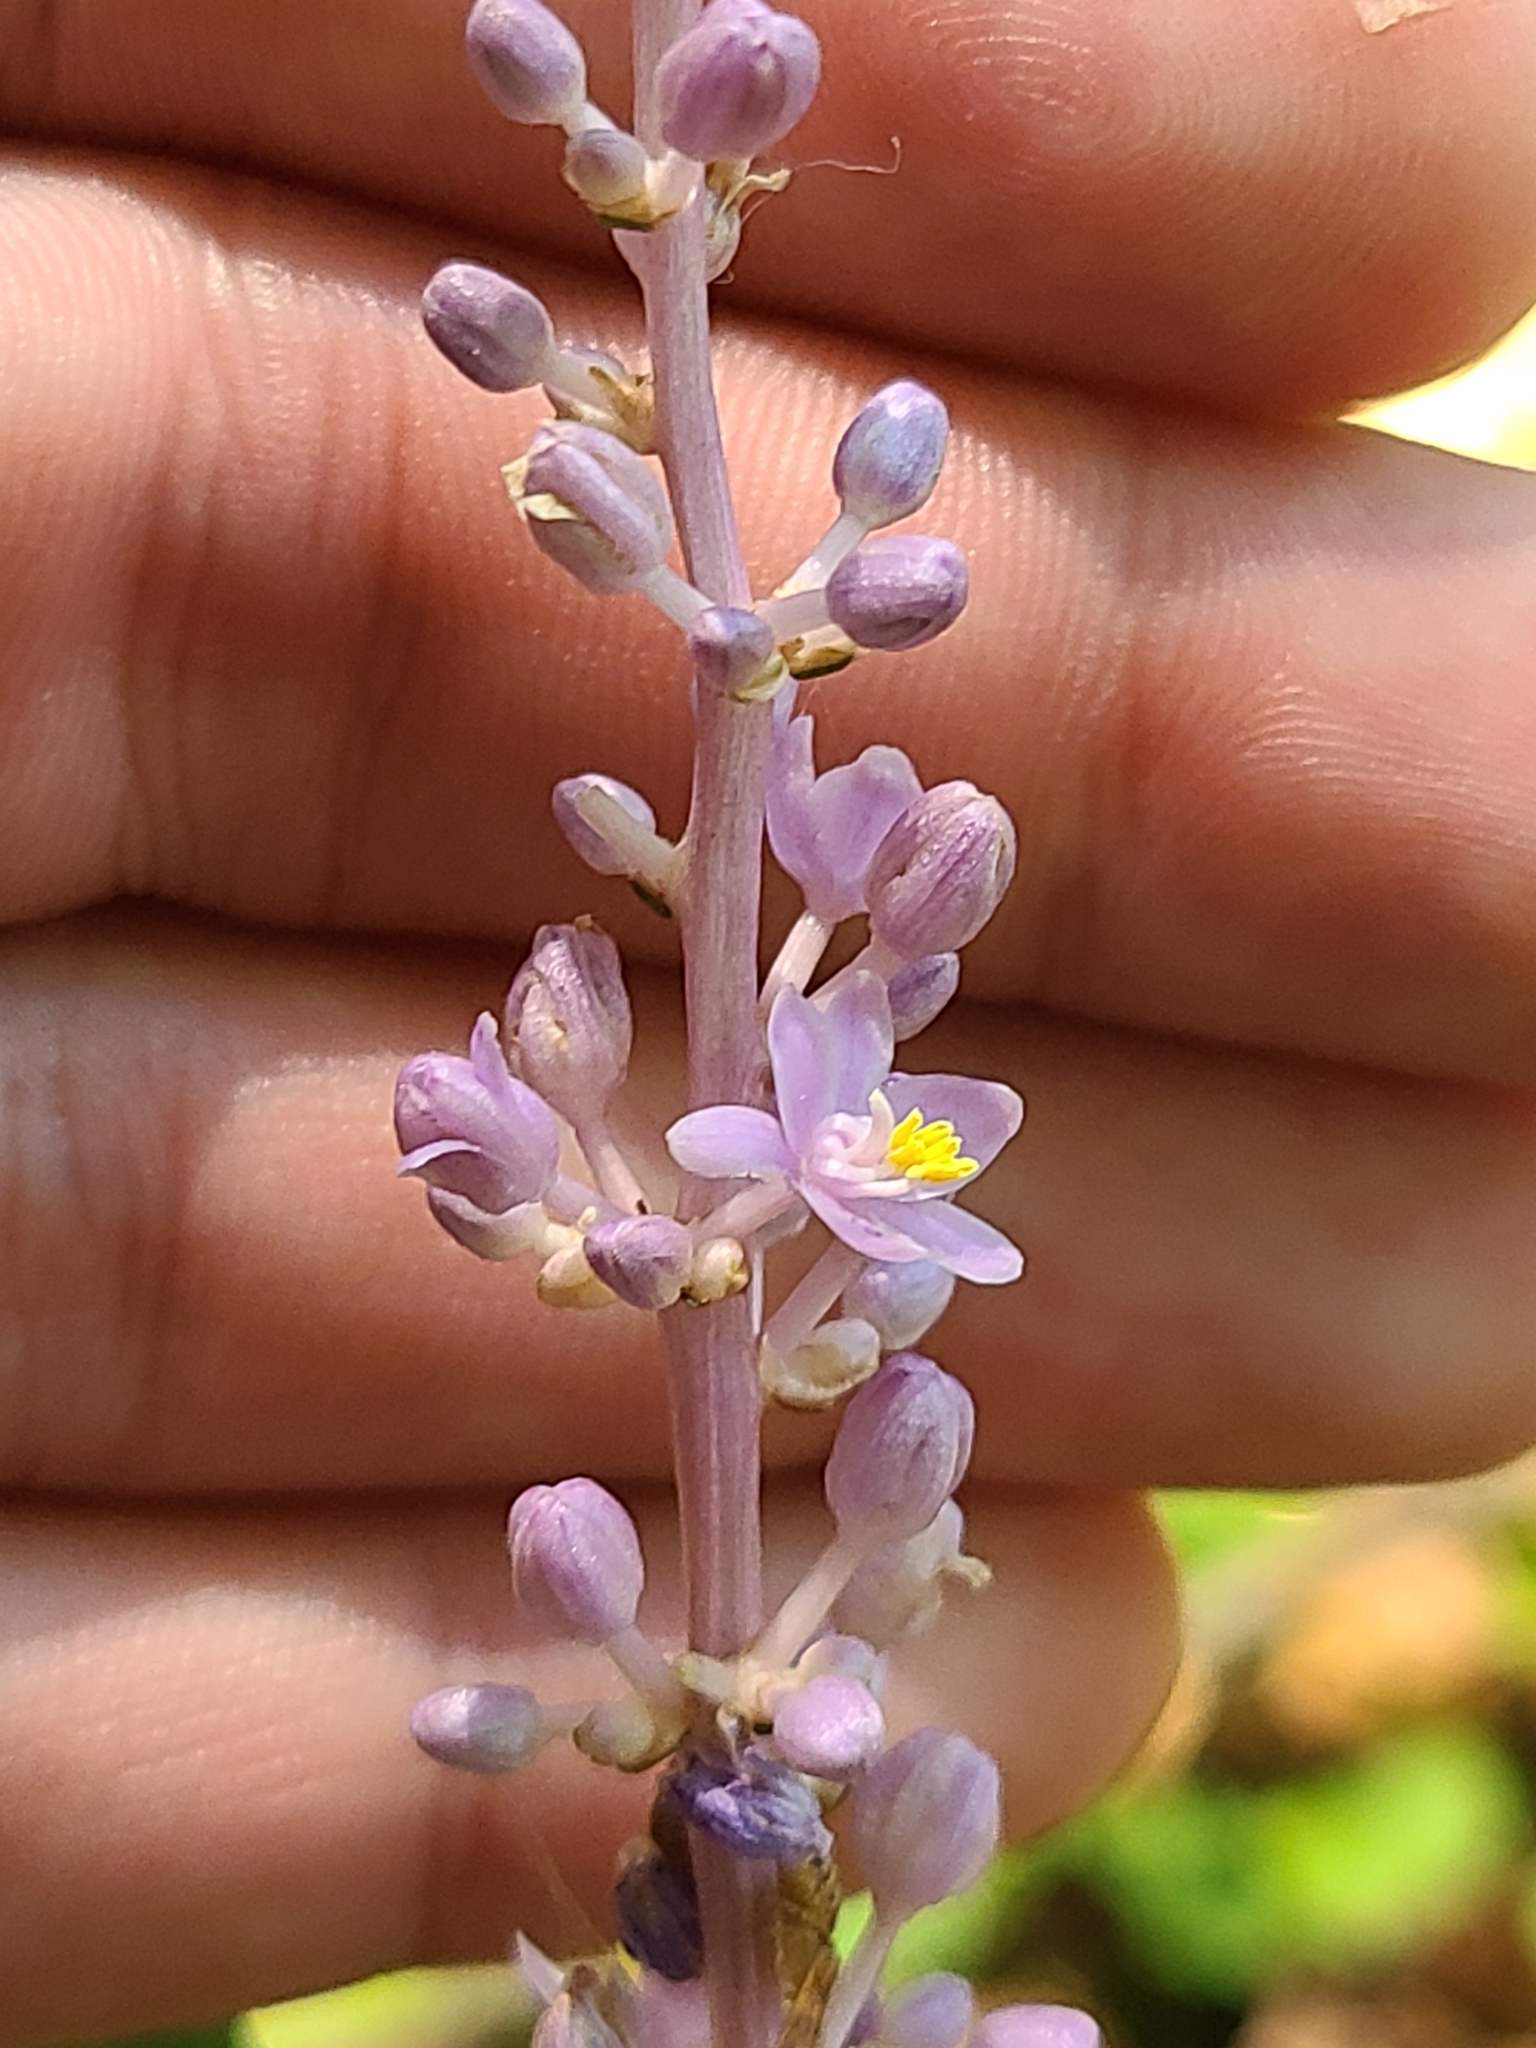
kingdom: Plantae
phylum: Tracheophyta
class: Liliopsida
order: Asparagales
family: Asparagaceae
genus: Liriope
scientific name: Liriope muscari
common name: Big blue lilyturf
